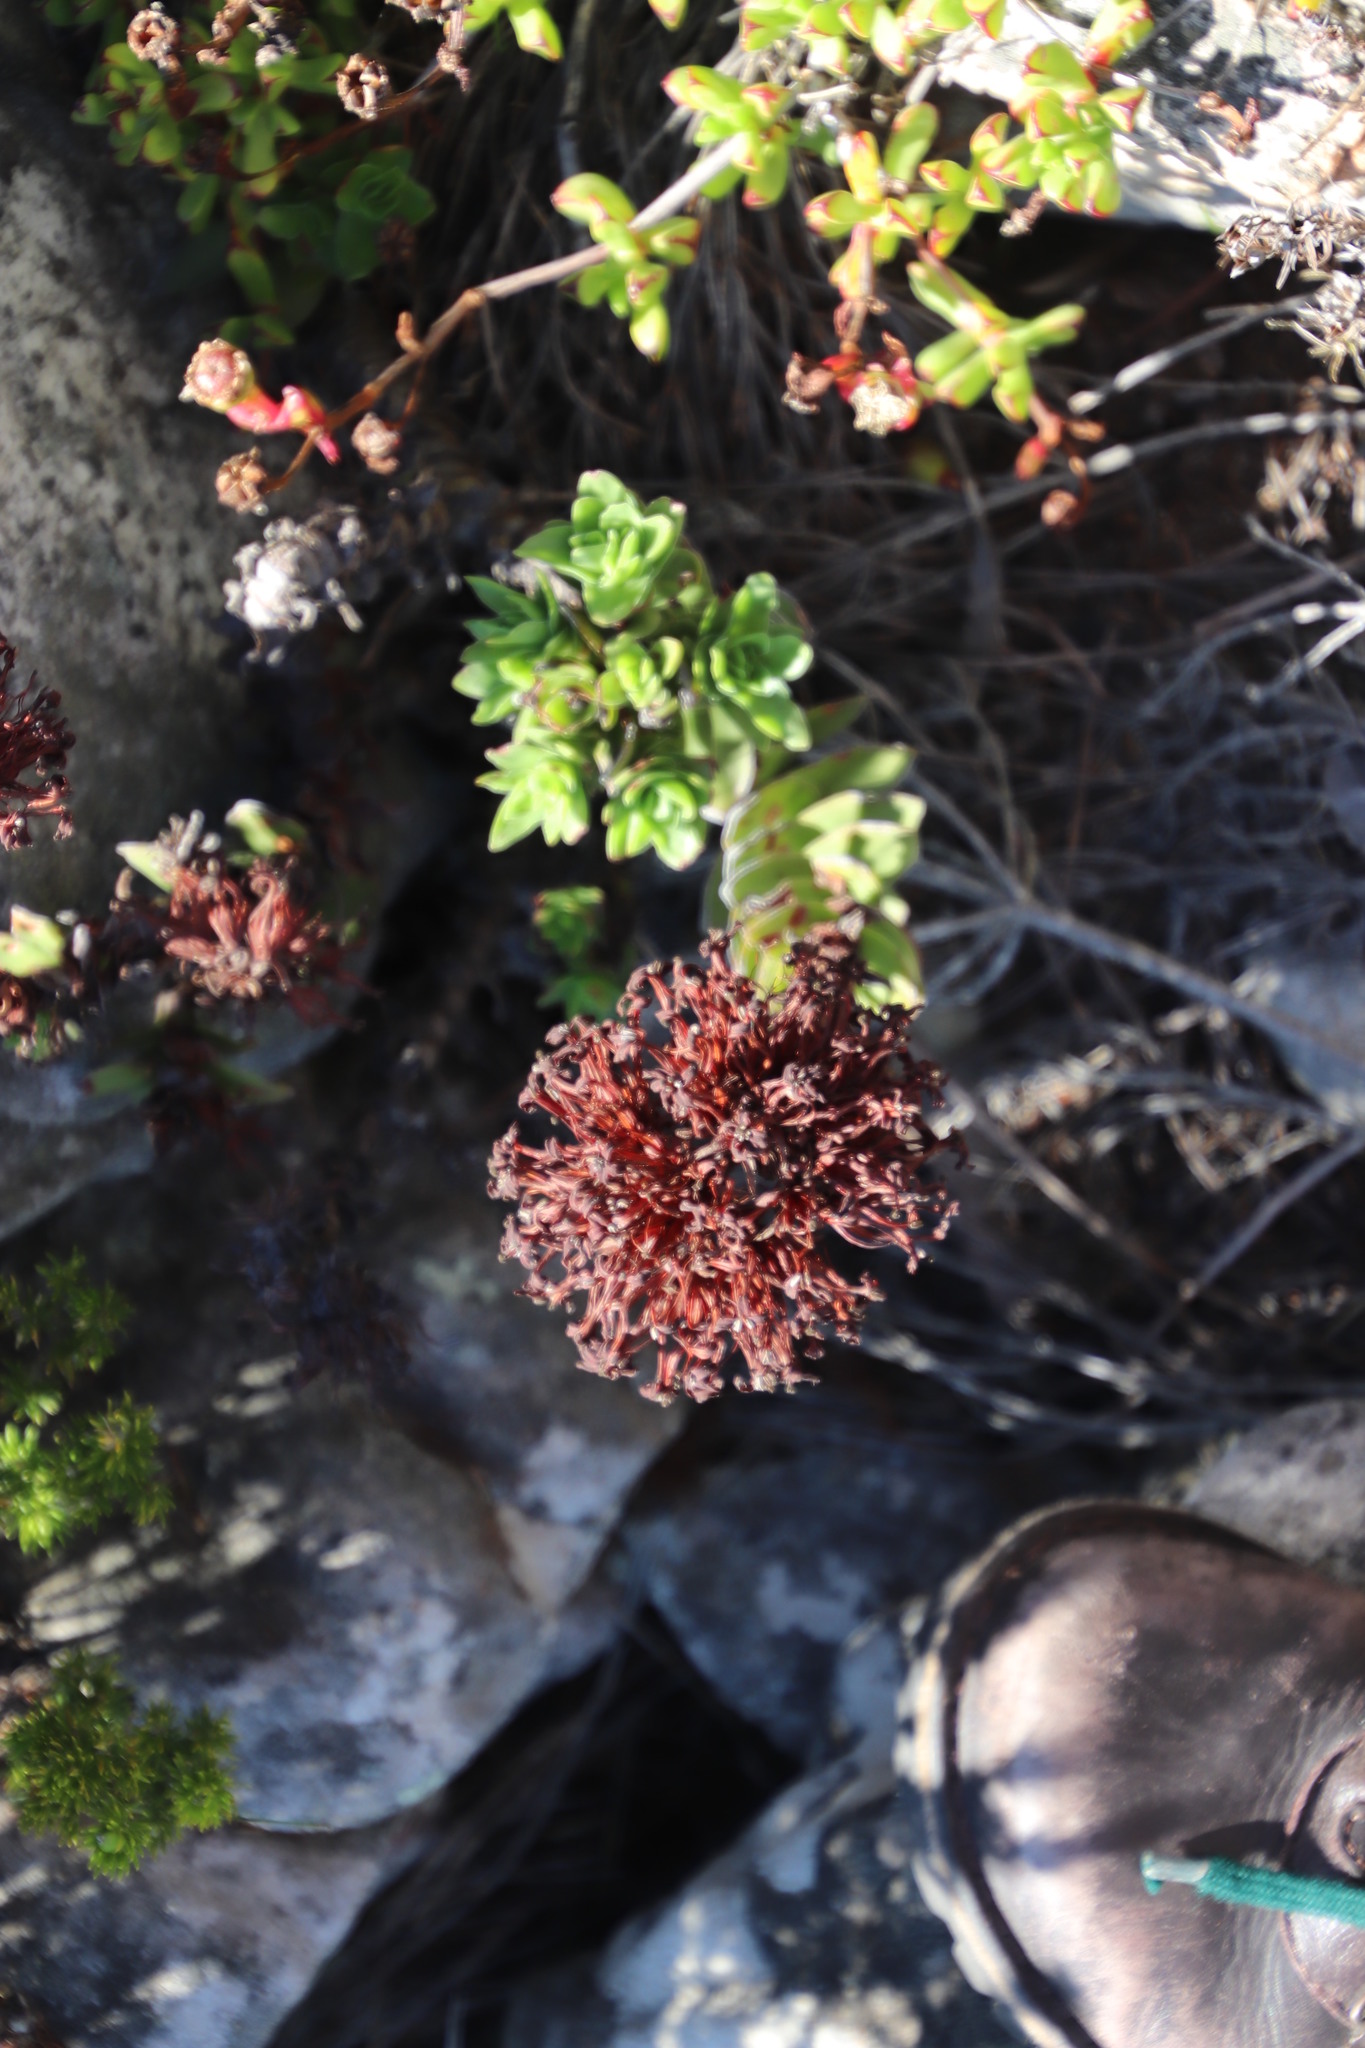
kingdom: Plantae
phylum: Tracheophyta
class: Magnoliopsida
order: Saxifragales
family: Crassulaceae
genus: Crassula
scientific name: Crassula coccinea
